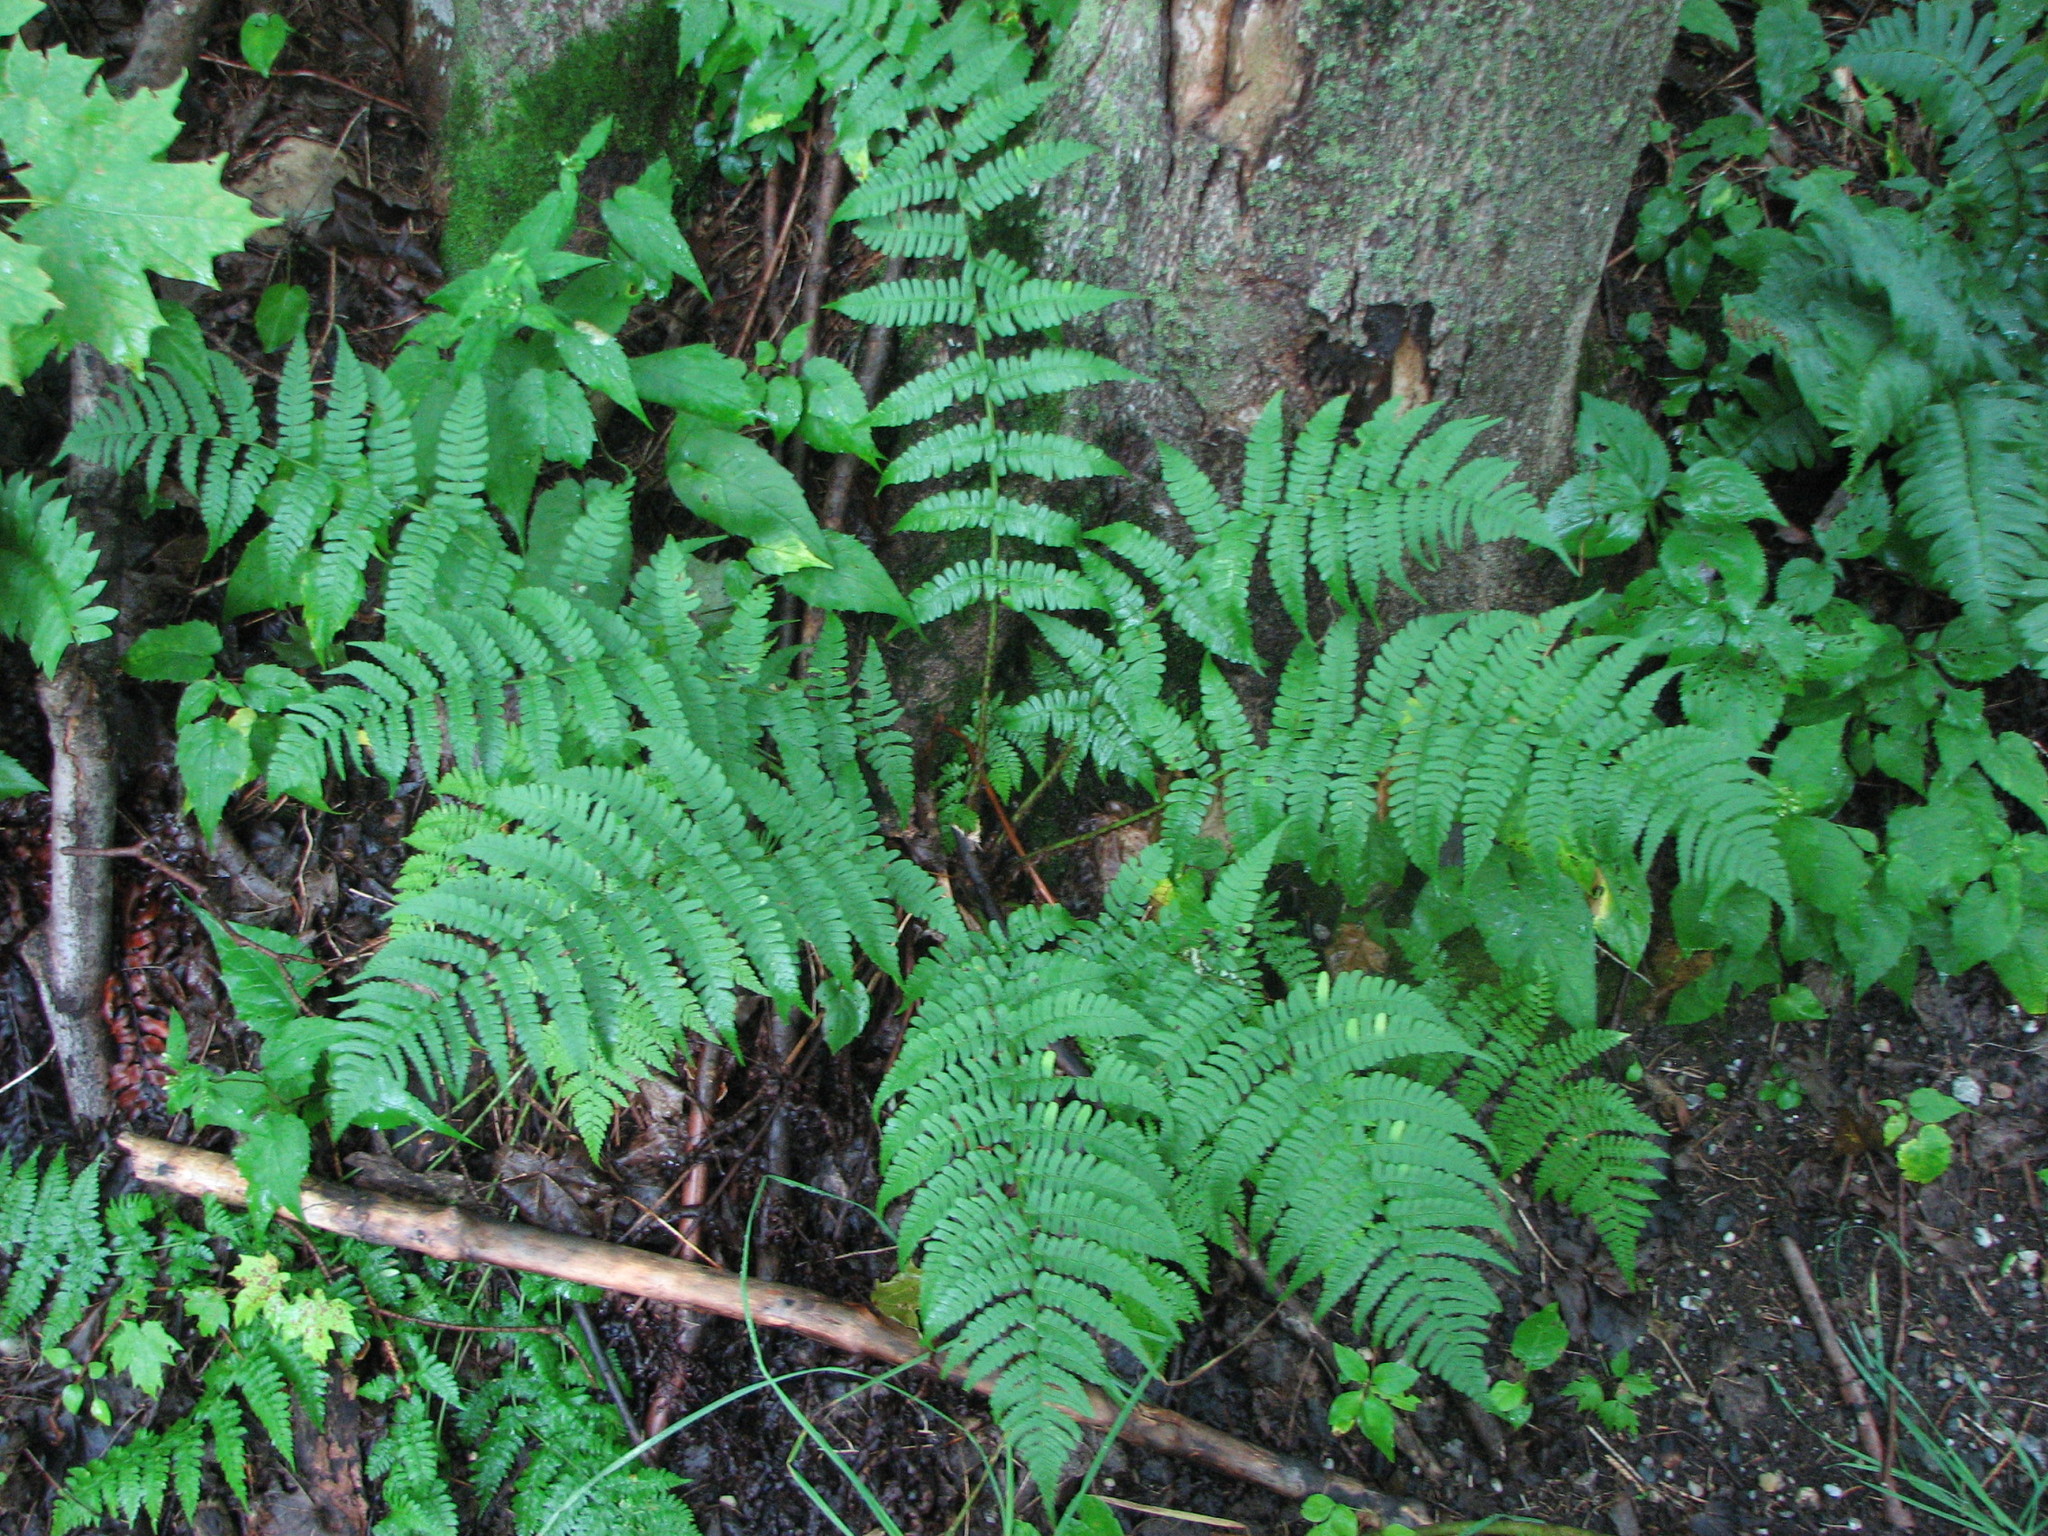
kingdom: Plantae
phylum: Tracheophyta
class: Polypodiopsida
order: Polypodiales
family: Dryopteridaceae
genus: Dryopteris
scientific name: Dryopteris marginalis
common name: Marginal wood fern
